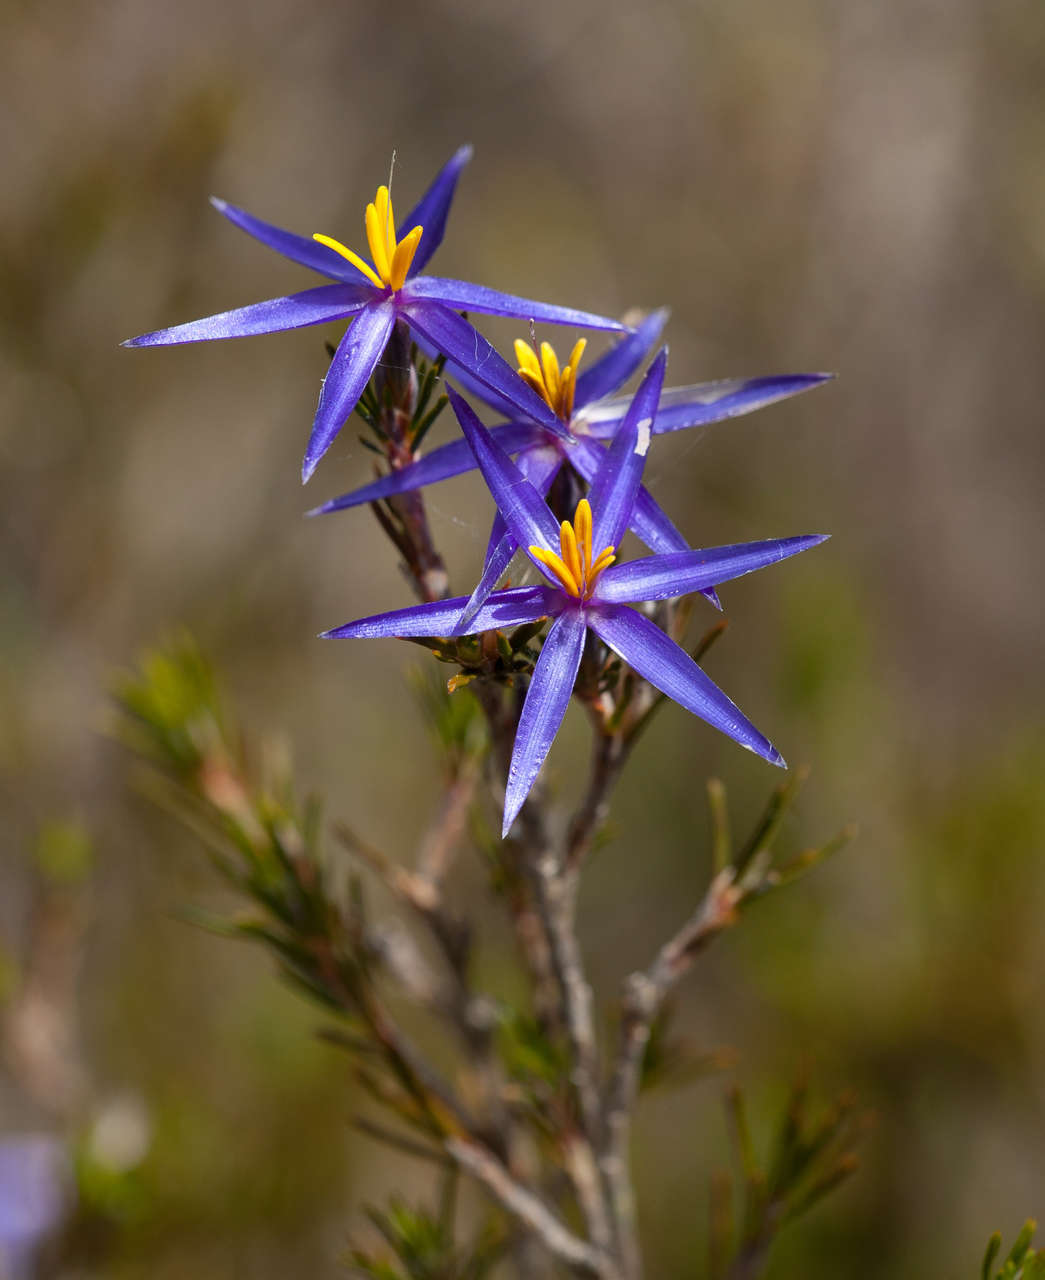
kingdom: Plantae
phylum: Tracheophyta
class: Liliopsida
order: Arecales
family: Dasypogonaceae
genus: Calectasia
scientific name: Calectasia intermedia
